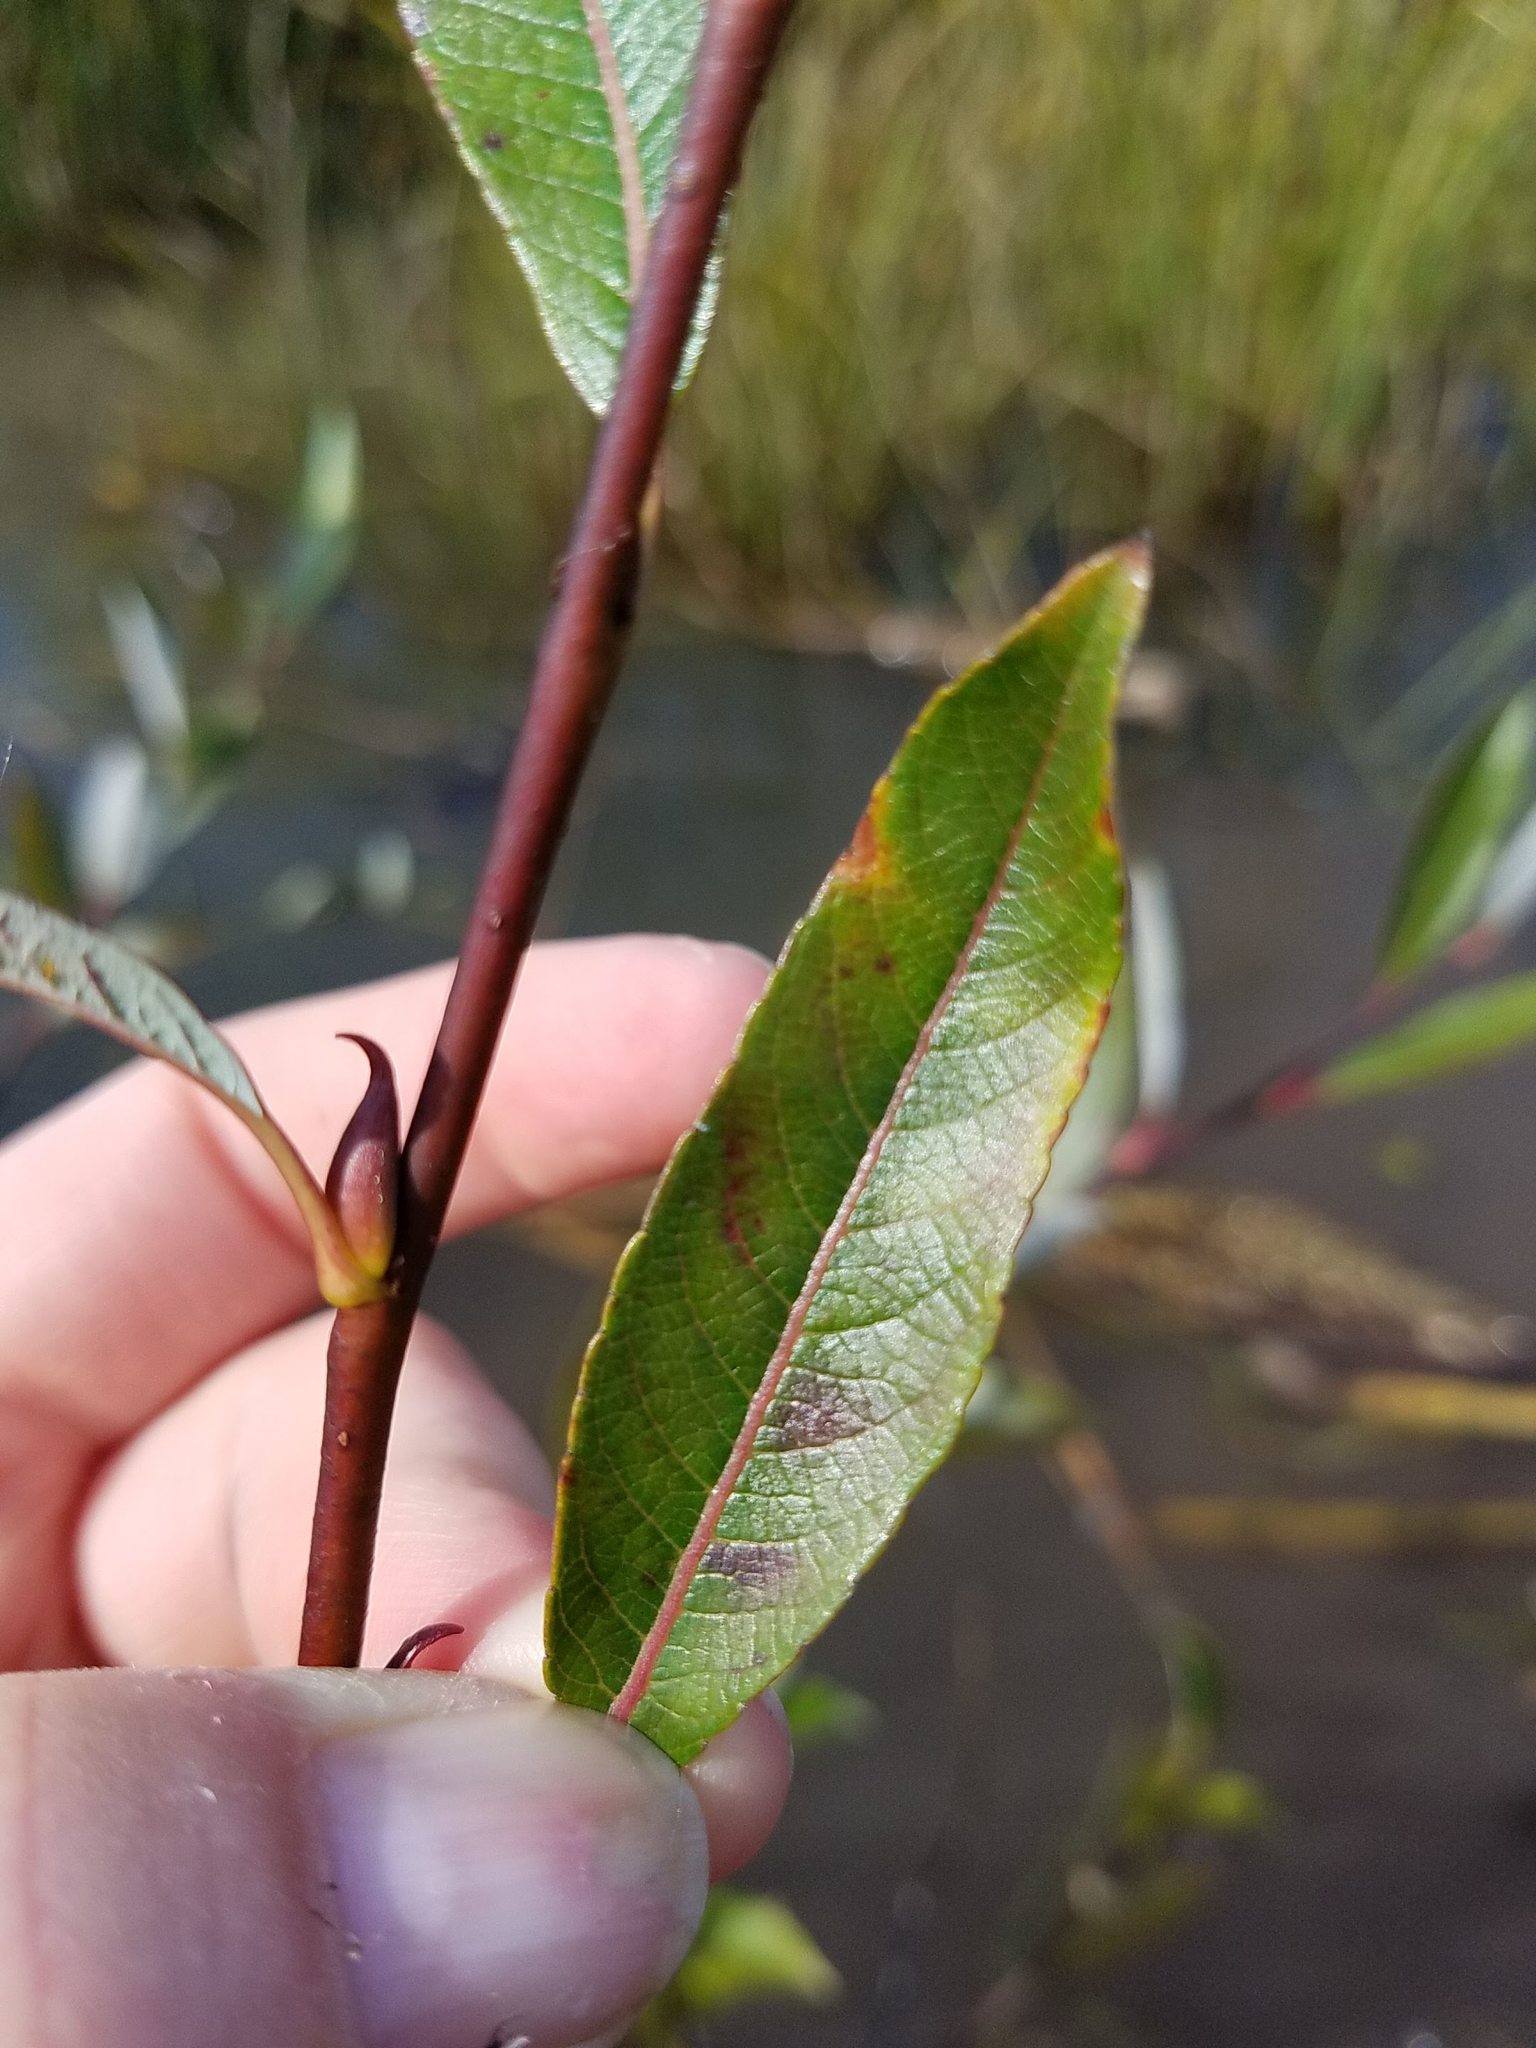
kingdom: Plantae
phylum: Tracheophyta
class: Magnoliopsida
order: Malpighiales
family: Salicaceae
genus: Salix
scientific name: Salix planifolia
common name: Mountain willow
